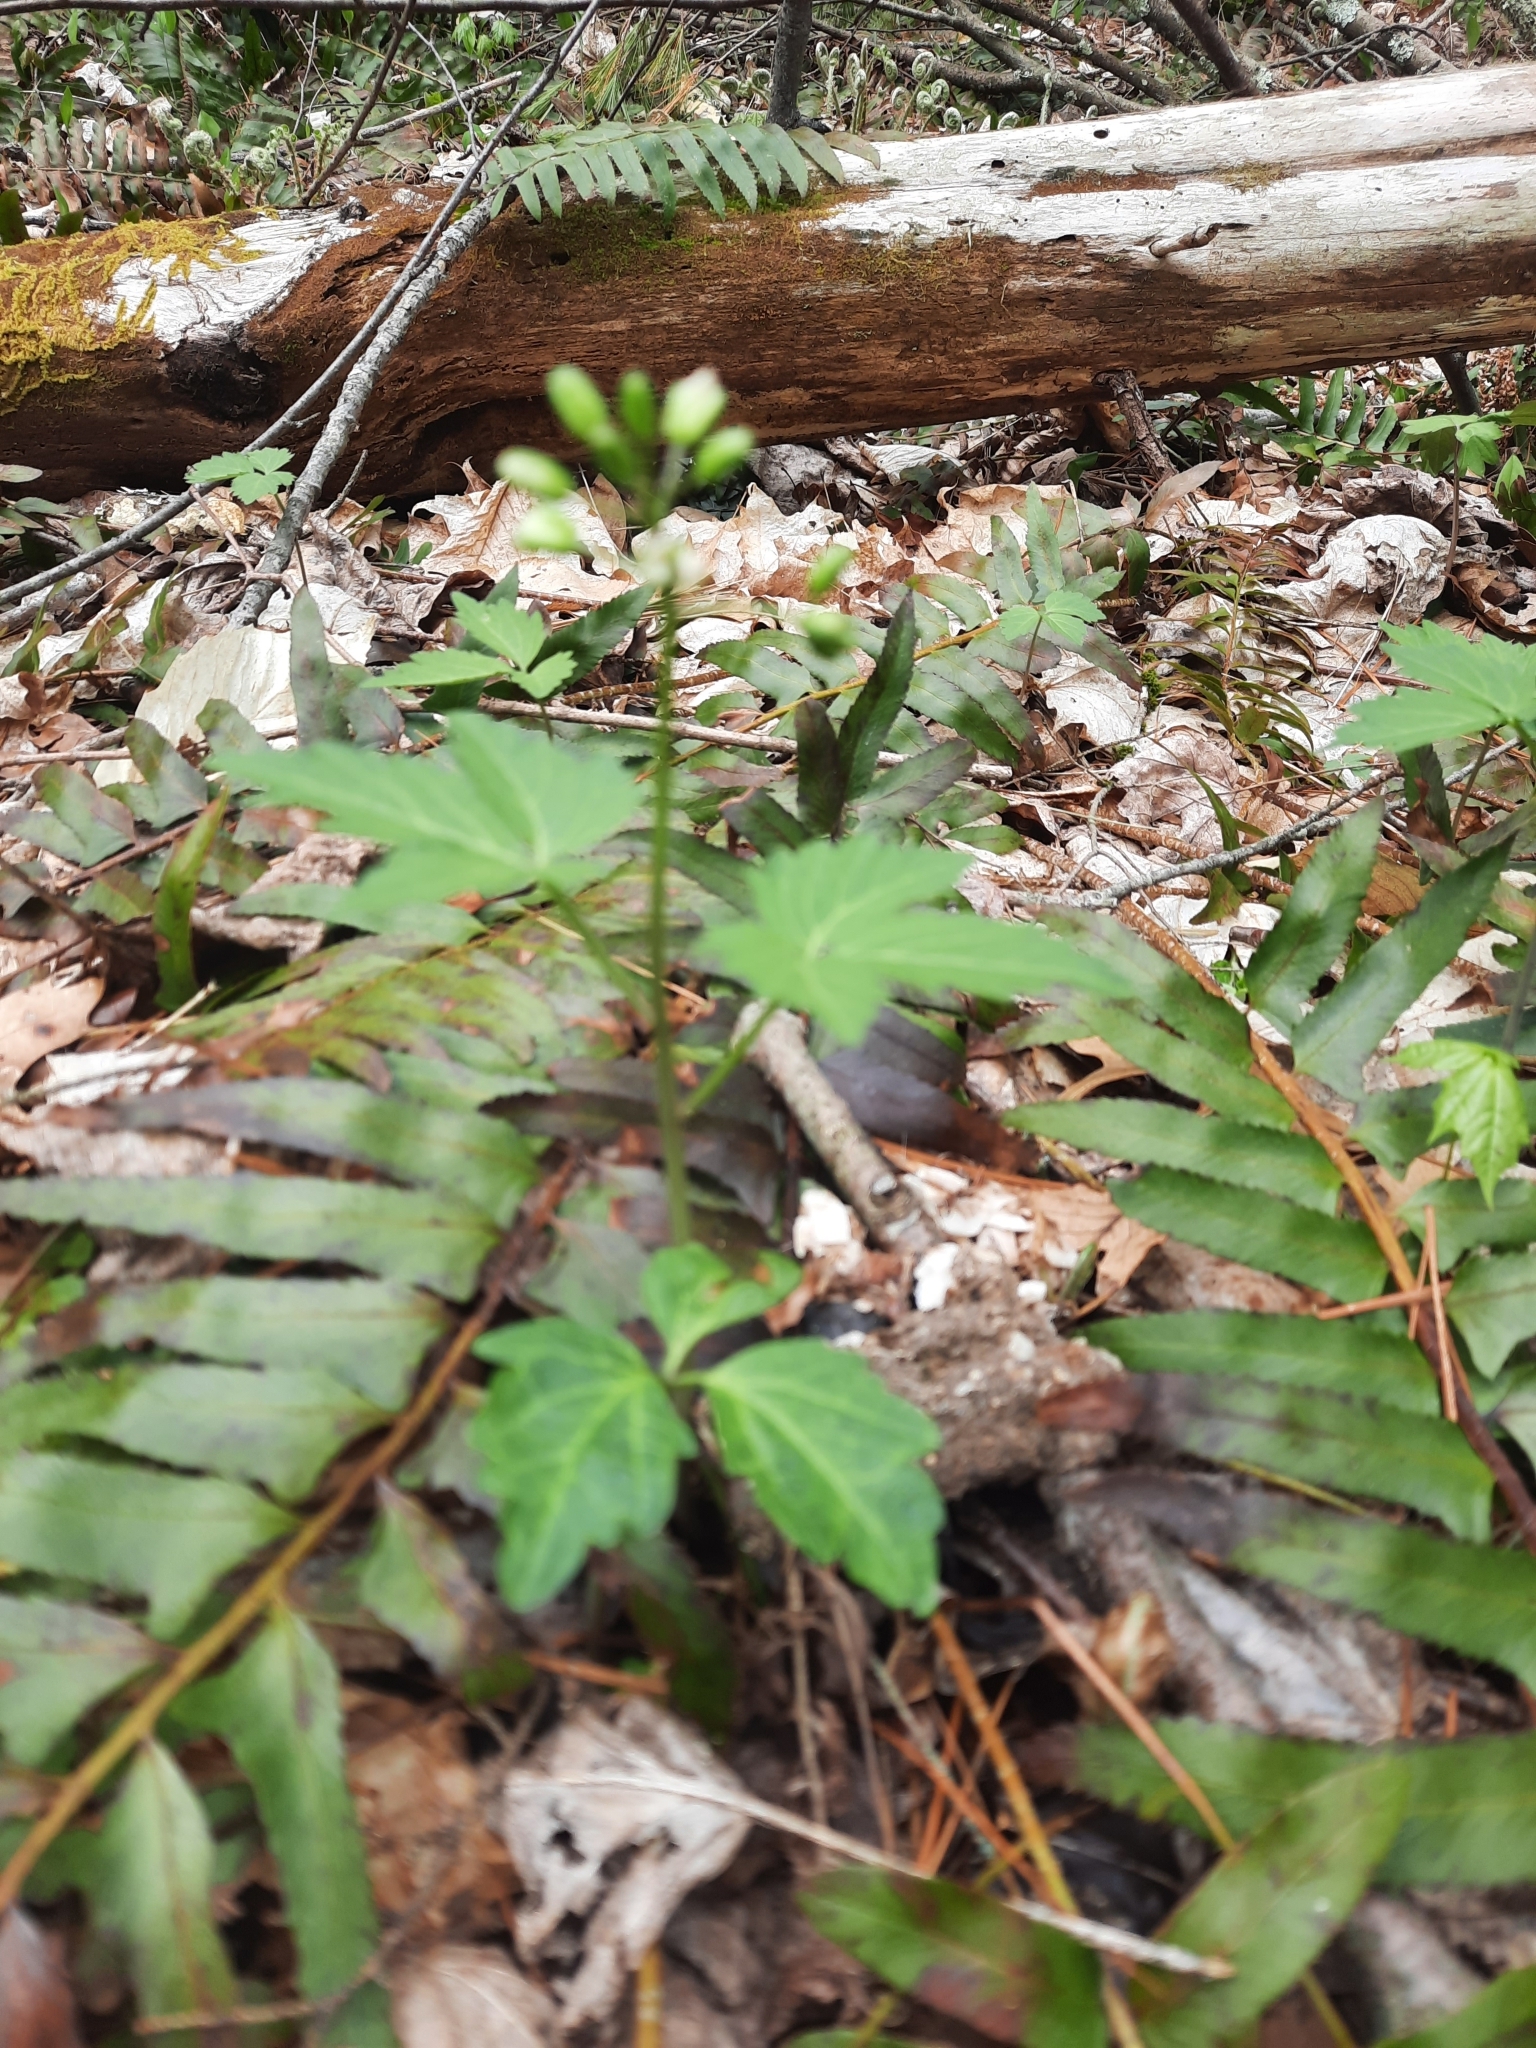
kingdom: Plantae
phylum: Tracheophyta
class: Magnoliopsida
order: Brassicales
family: Brassicaceae
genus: Cardamine
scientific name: Cardamine diphylla
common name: Broad-leaved toothwort
